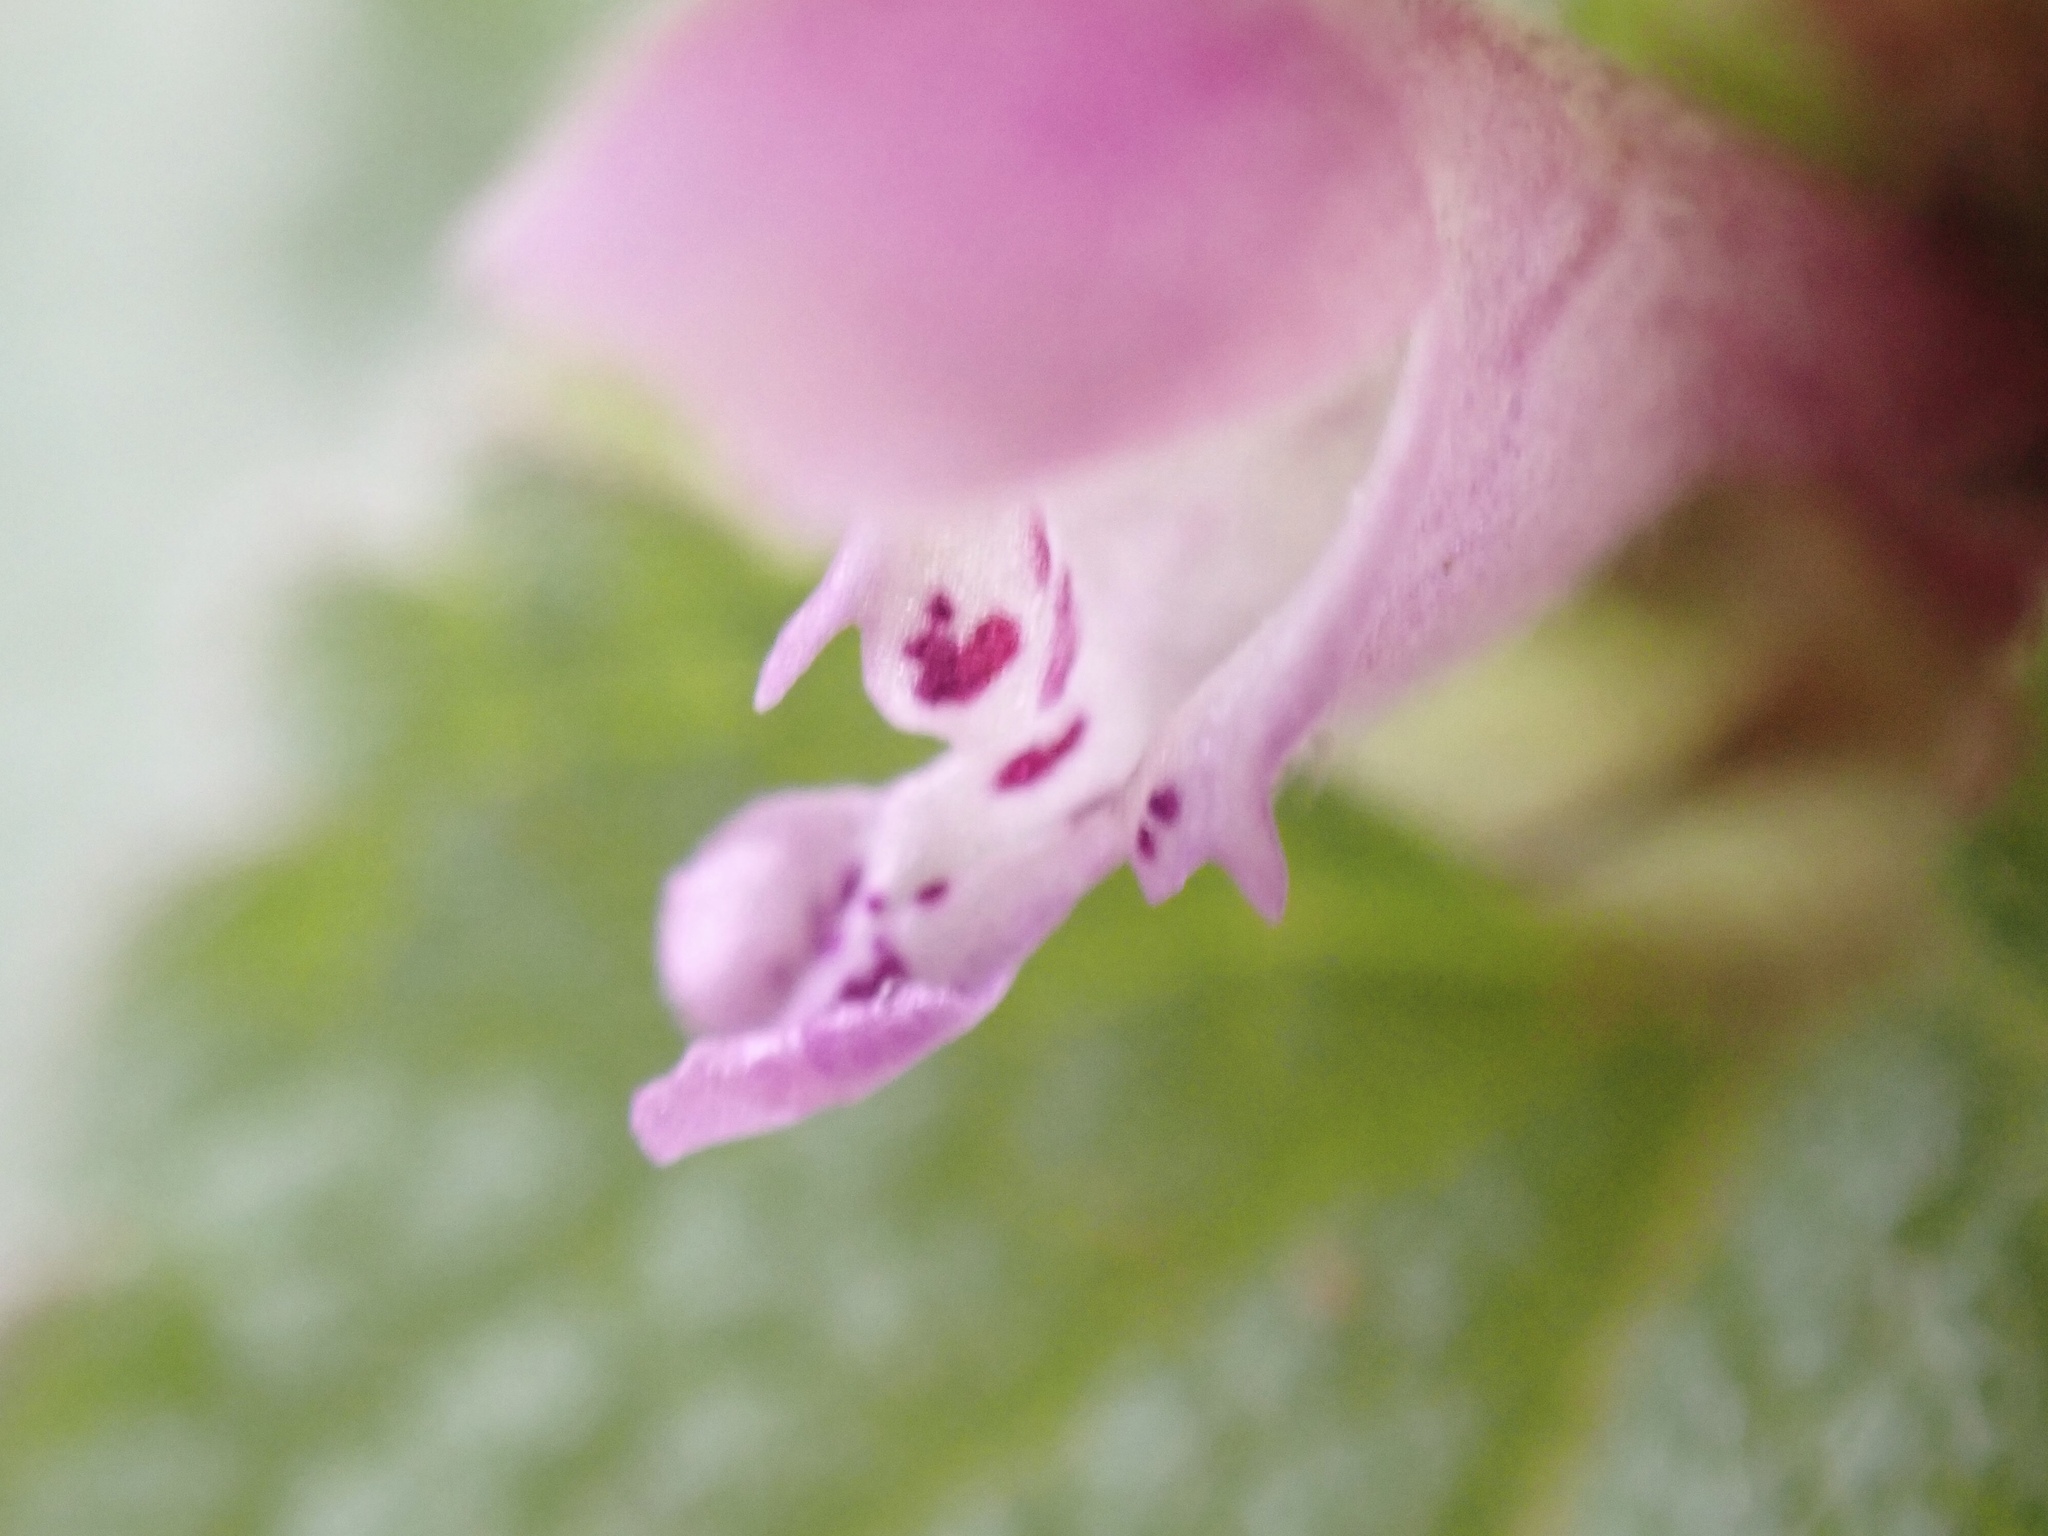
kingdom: Plantae
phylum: Tracheophyta
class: Magnoliopsida
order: Lamiales
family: Lamiaceae
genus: Lamium
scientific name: Lamium purpureum
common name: Red dead-nettle
